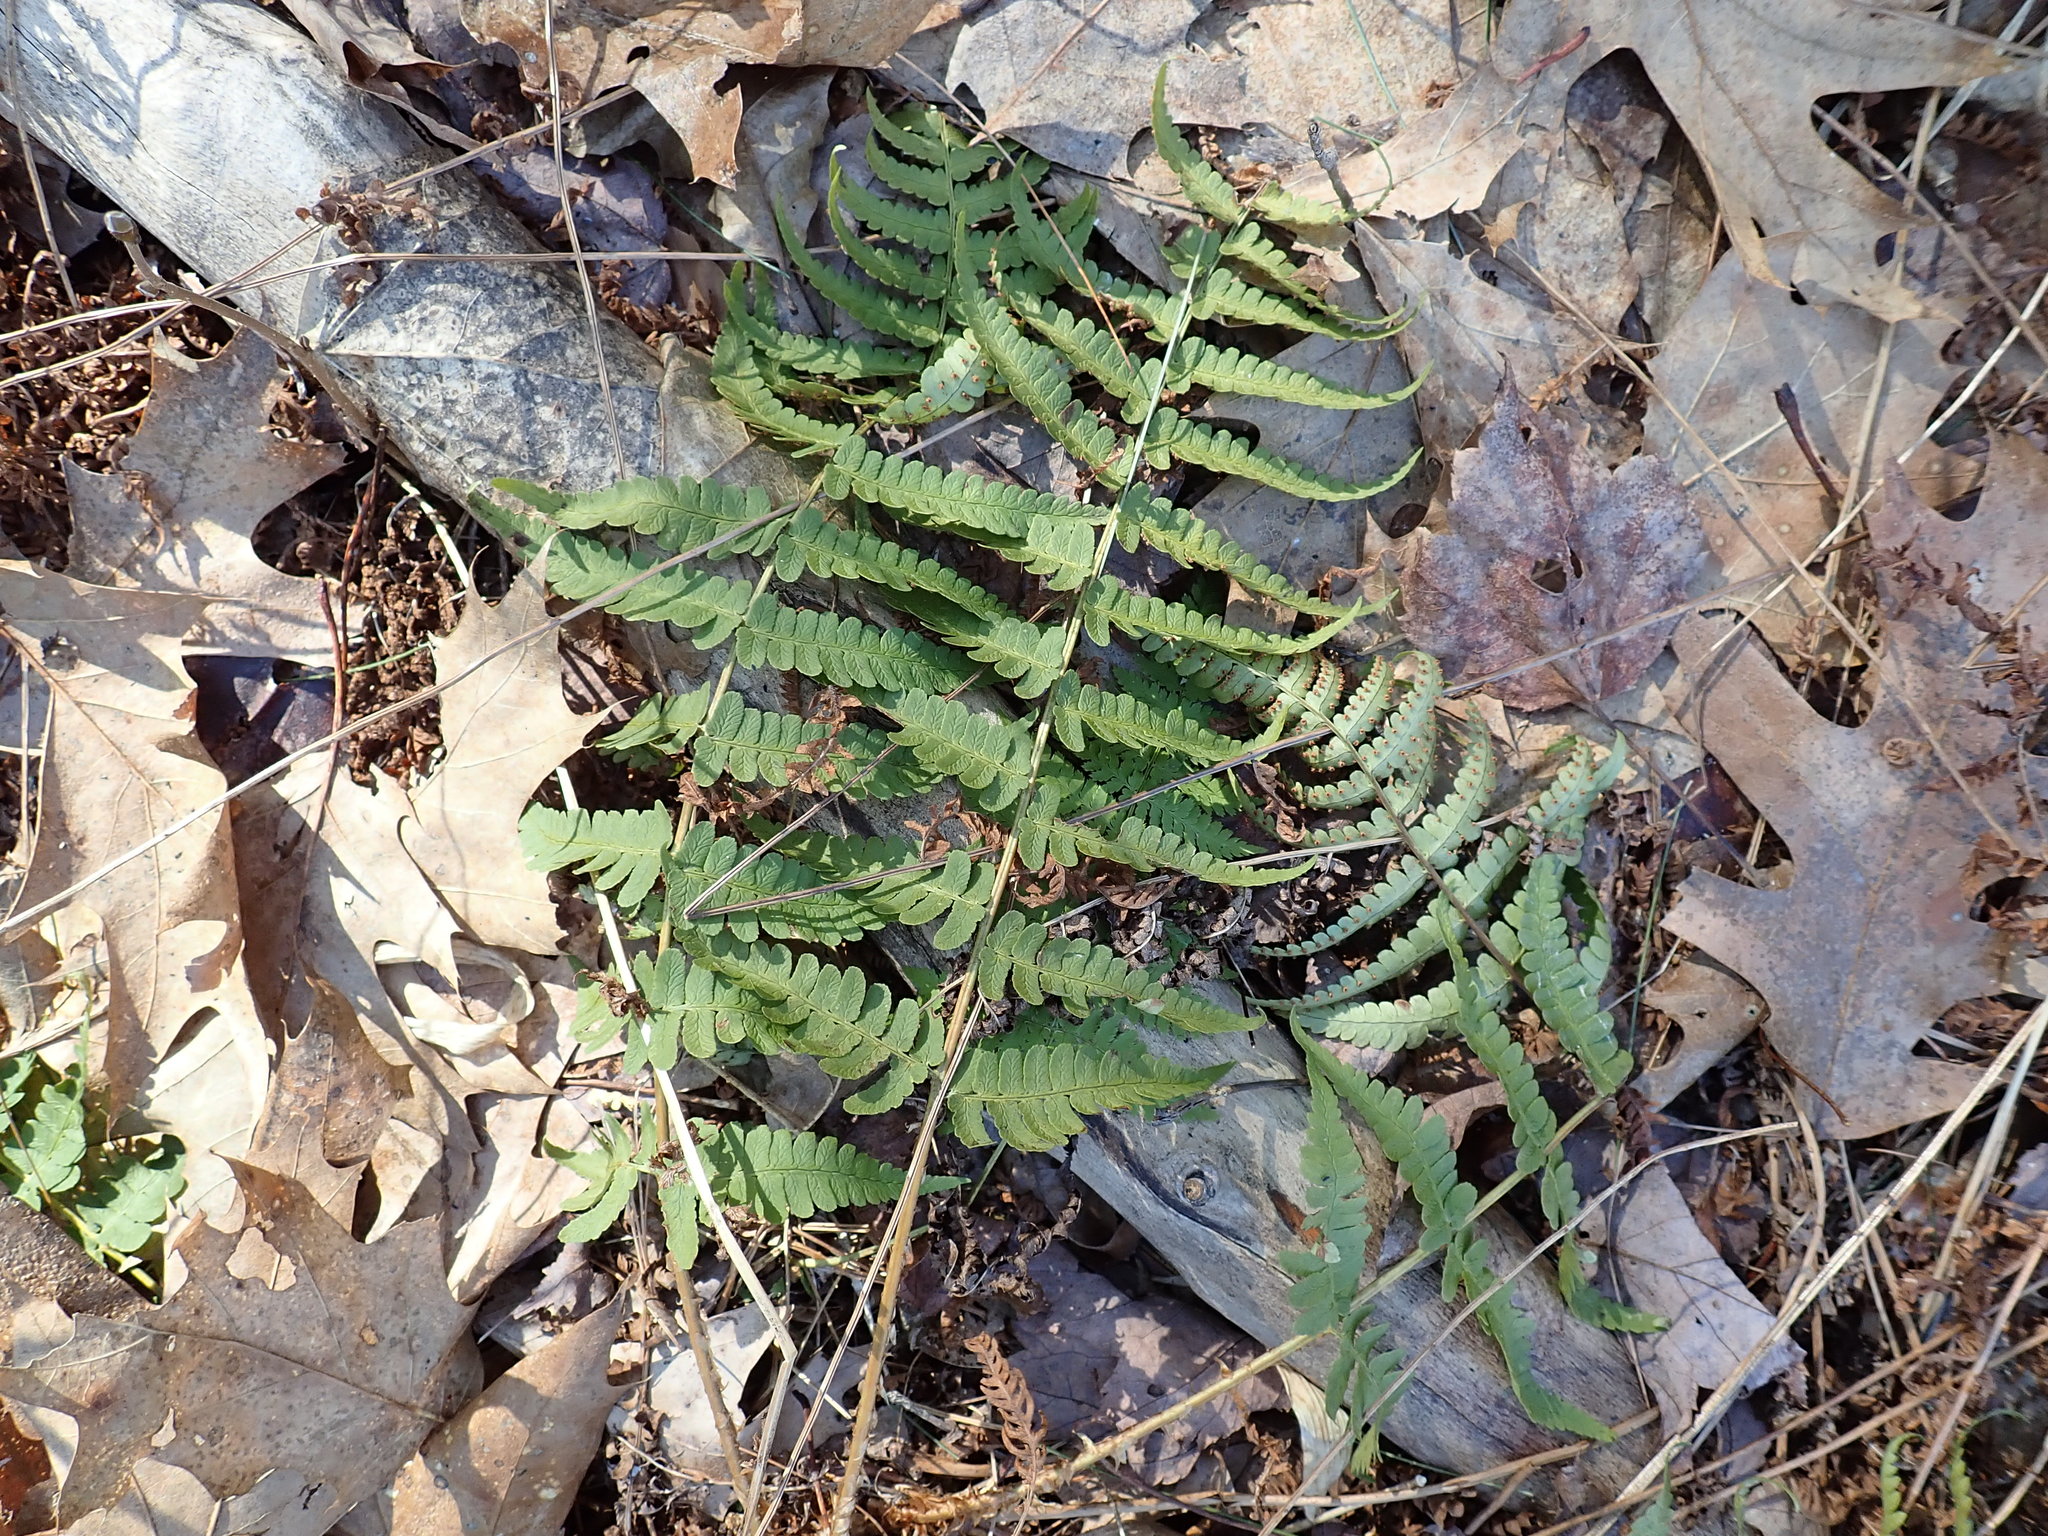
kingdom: Plantae
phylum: Tracheophyta
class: Polypodiopsida
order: Polypodiales
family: Dryopteridaceae
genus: Dryopteris
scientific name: Dryopteris marginalis
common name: Marginal wood fern
